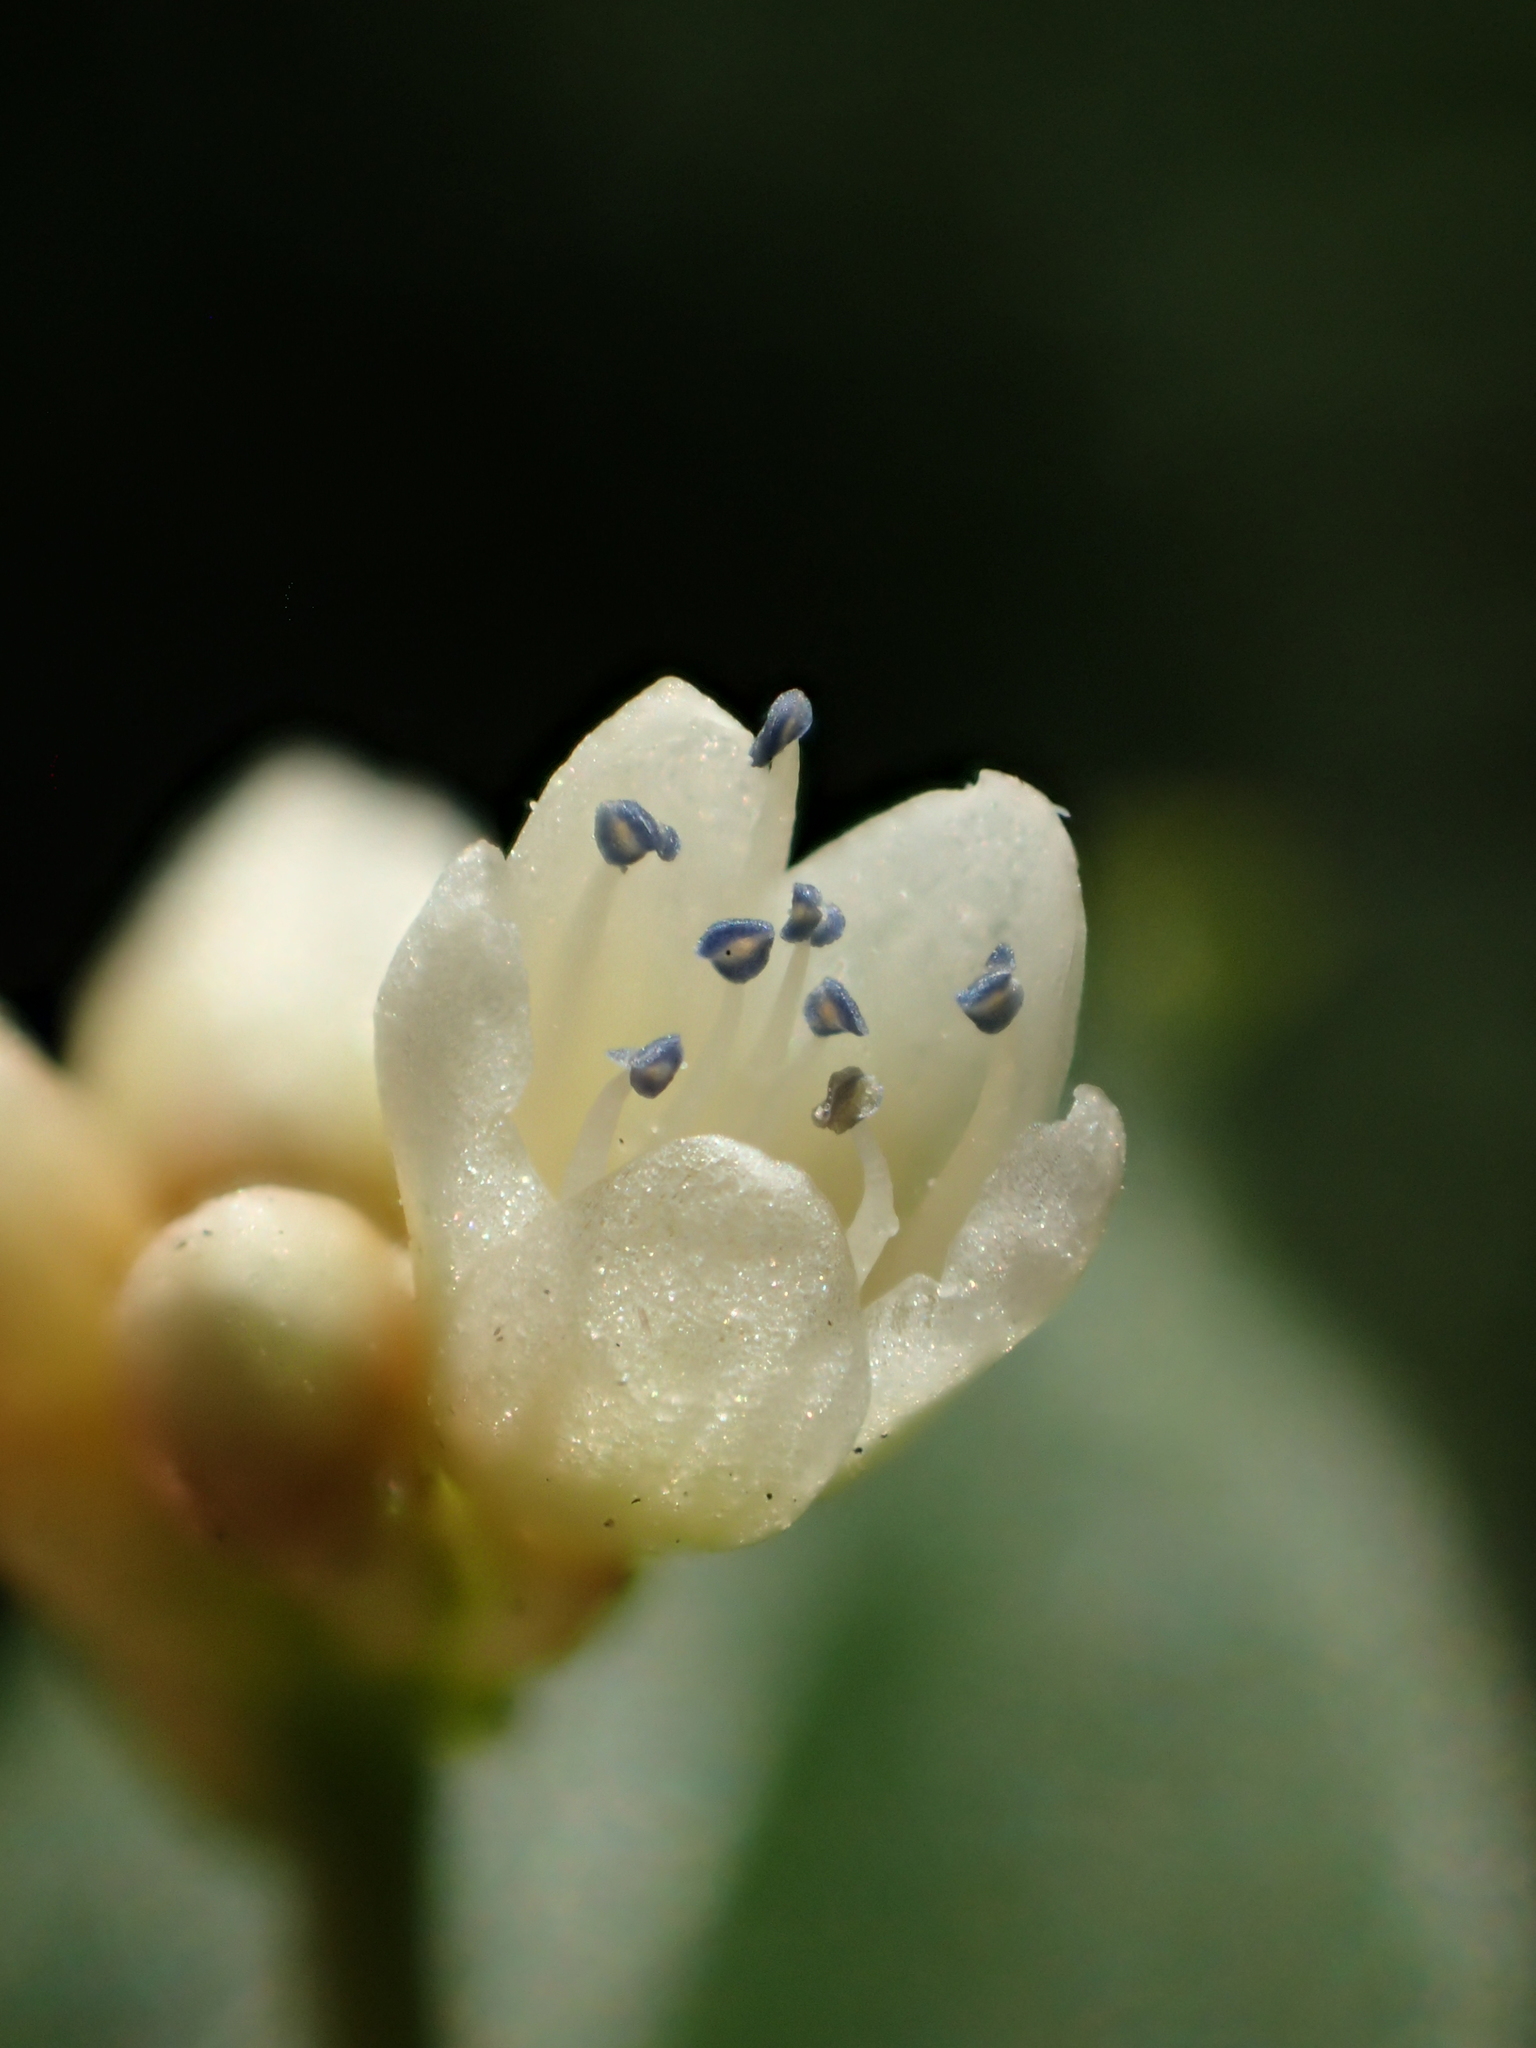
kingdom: Plantae
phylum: Tracheophyta
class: Magnoliopsida
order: Caryophyllales
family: Polygonaceae
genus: Persicaria
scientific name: Persicaria chinensis
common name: Chinese knotweed
